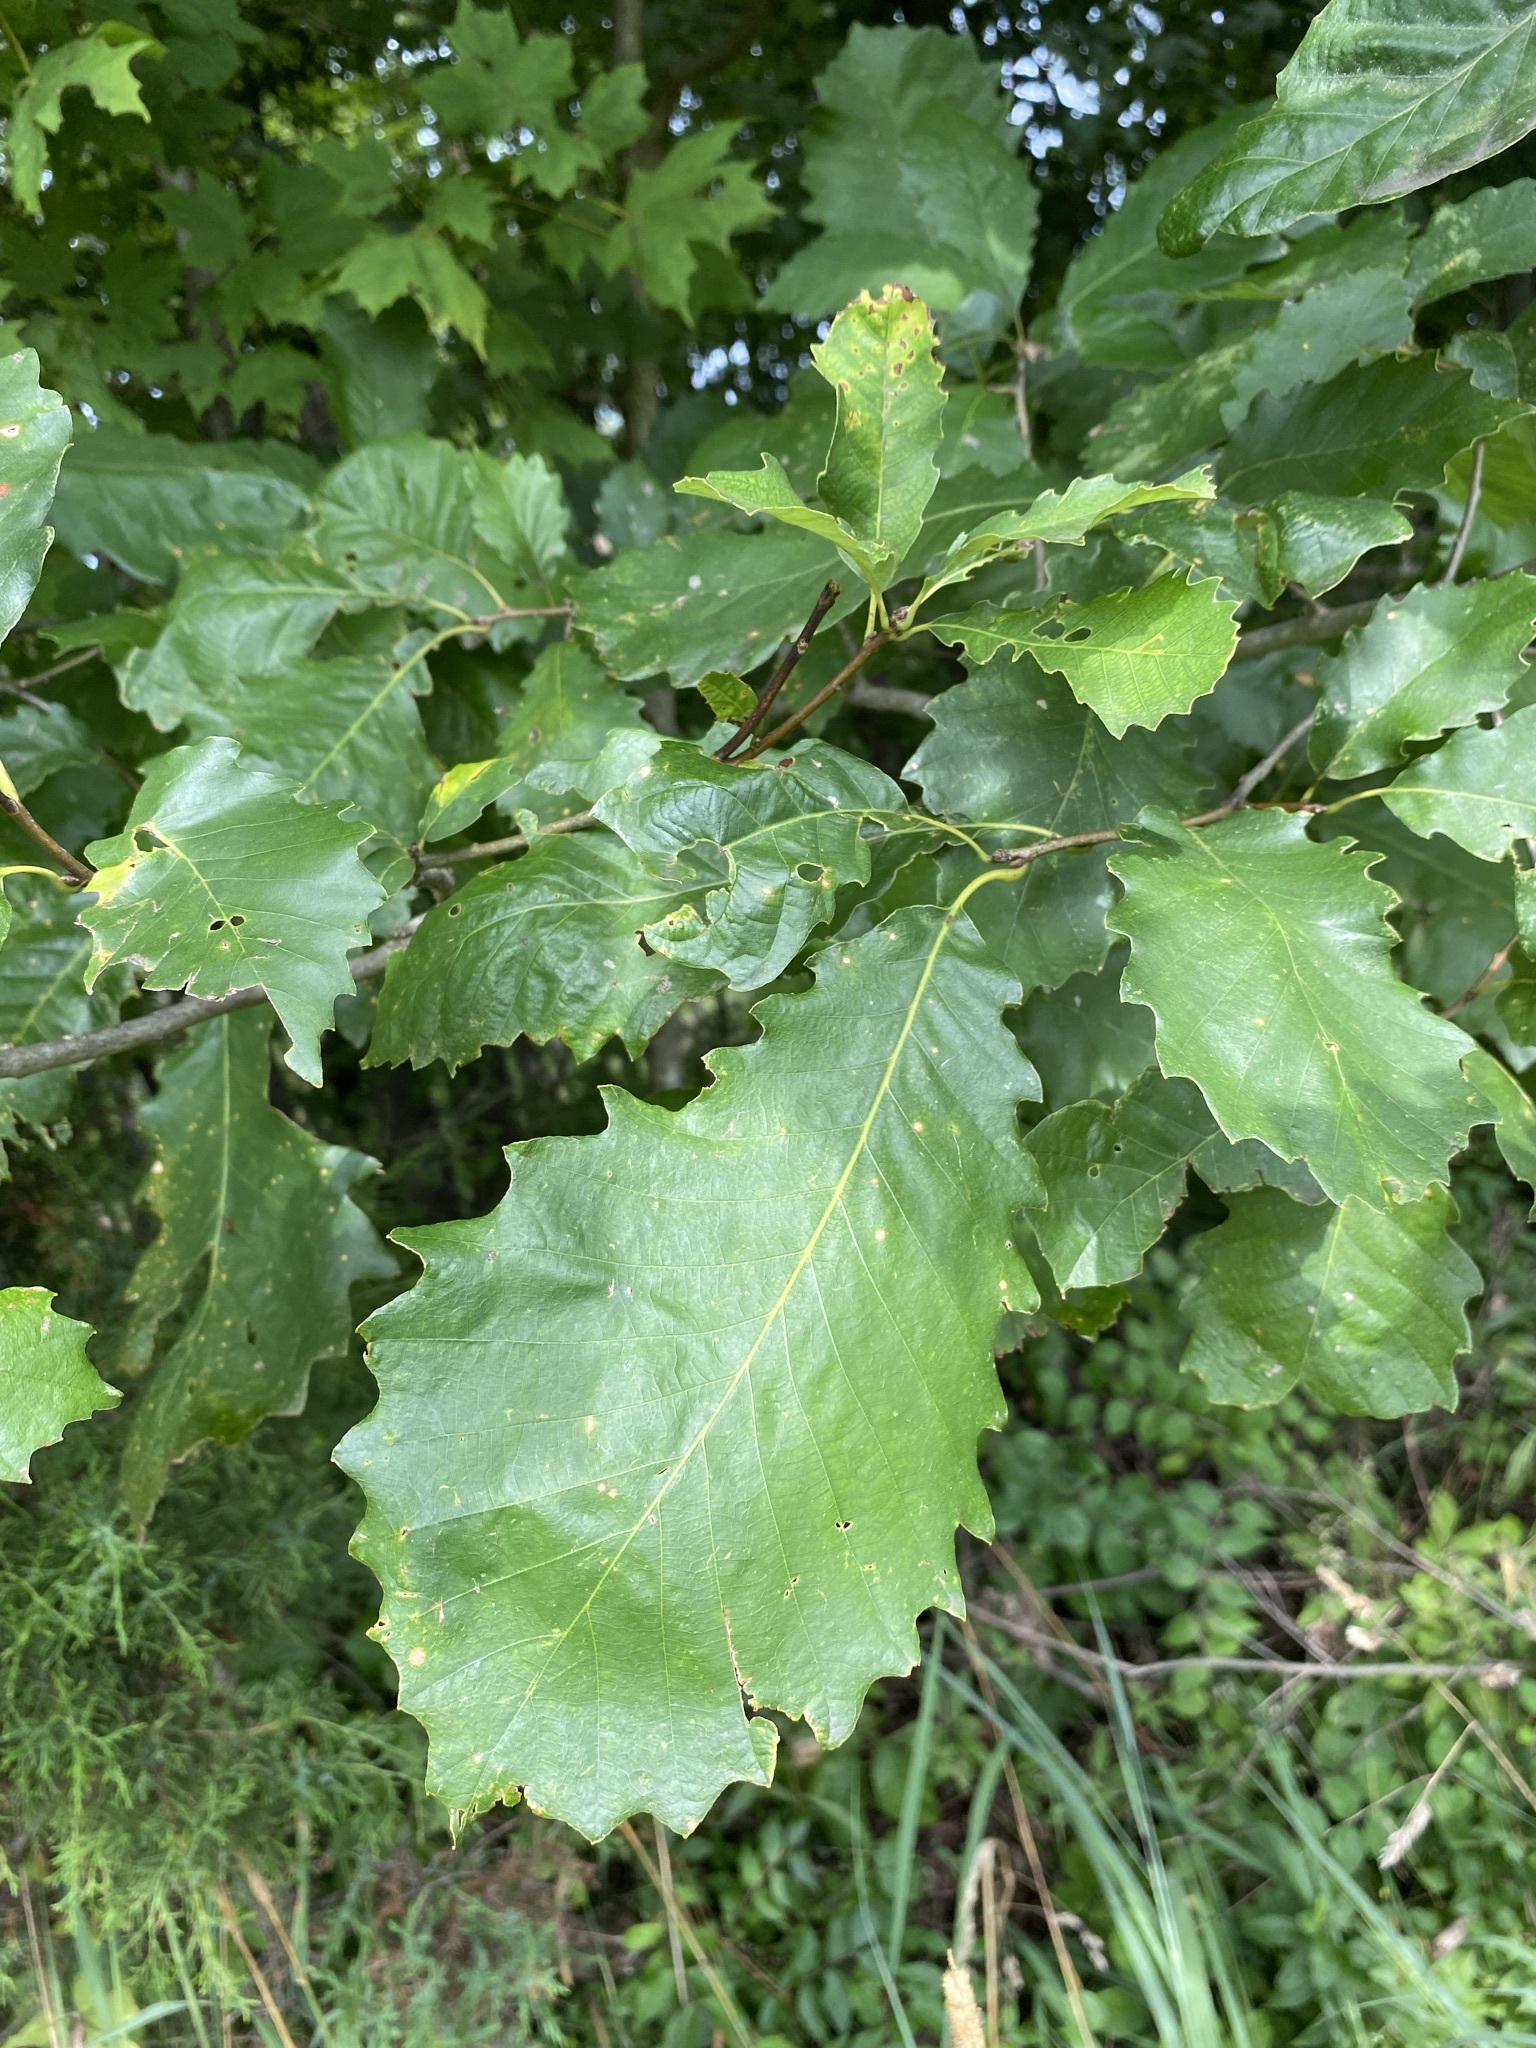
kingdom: Plantae
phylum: Tracheophyta
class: Magnoliopsida
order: Fagales
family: Fagaceae
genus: Quercus
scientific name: Quercus muehlenbergii
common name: Chinkapin oak
